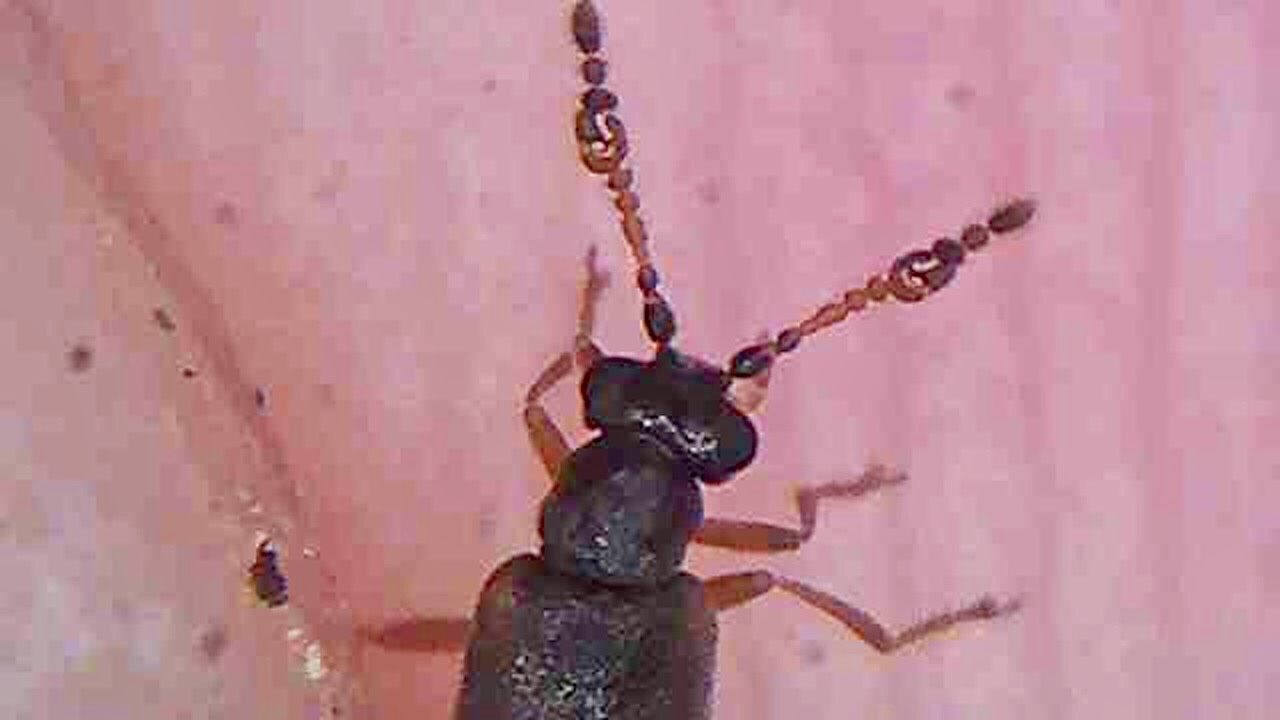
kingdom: Animalia
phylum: Arthropoda
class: Insecta
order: Coleoptera
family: Aderidae
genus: Zenascus
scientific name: Zenascus luniger
